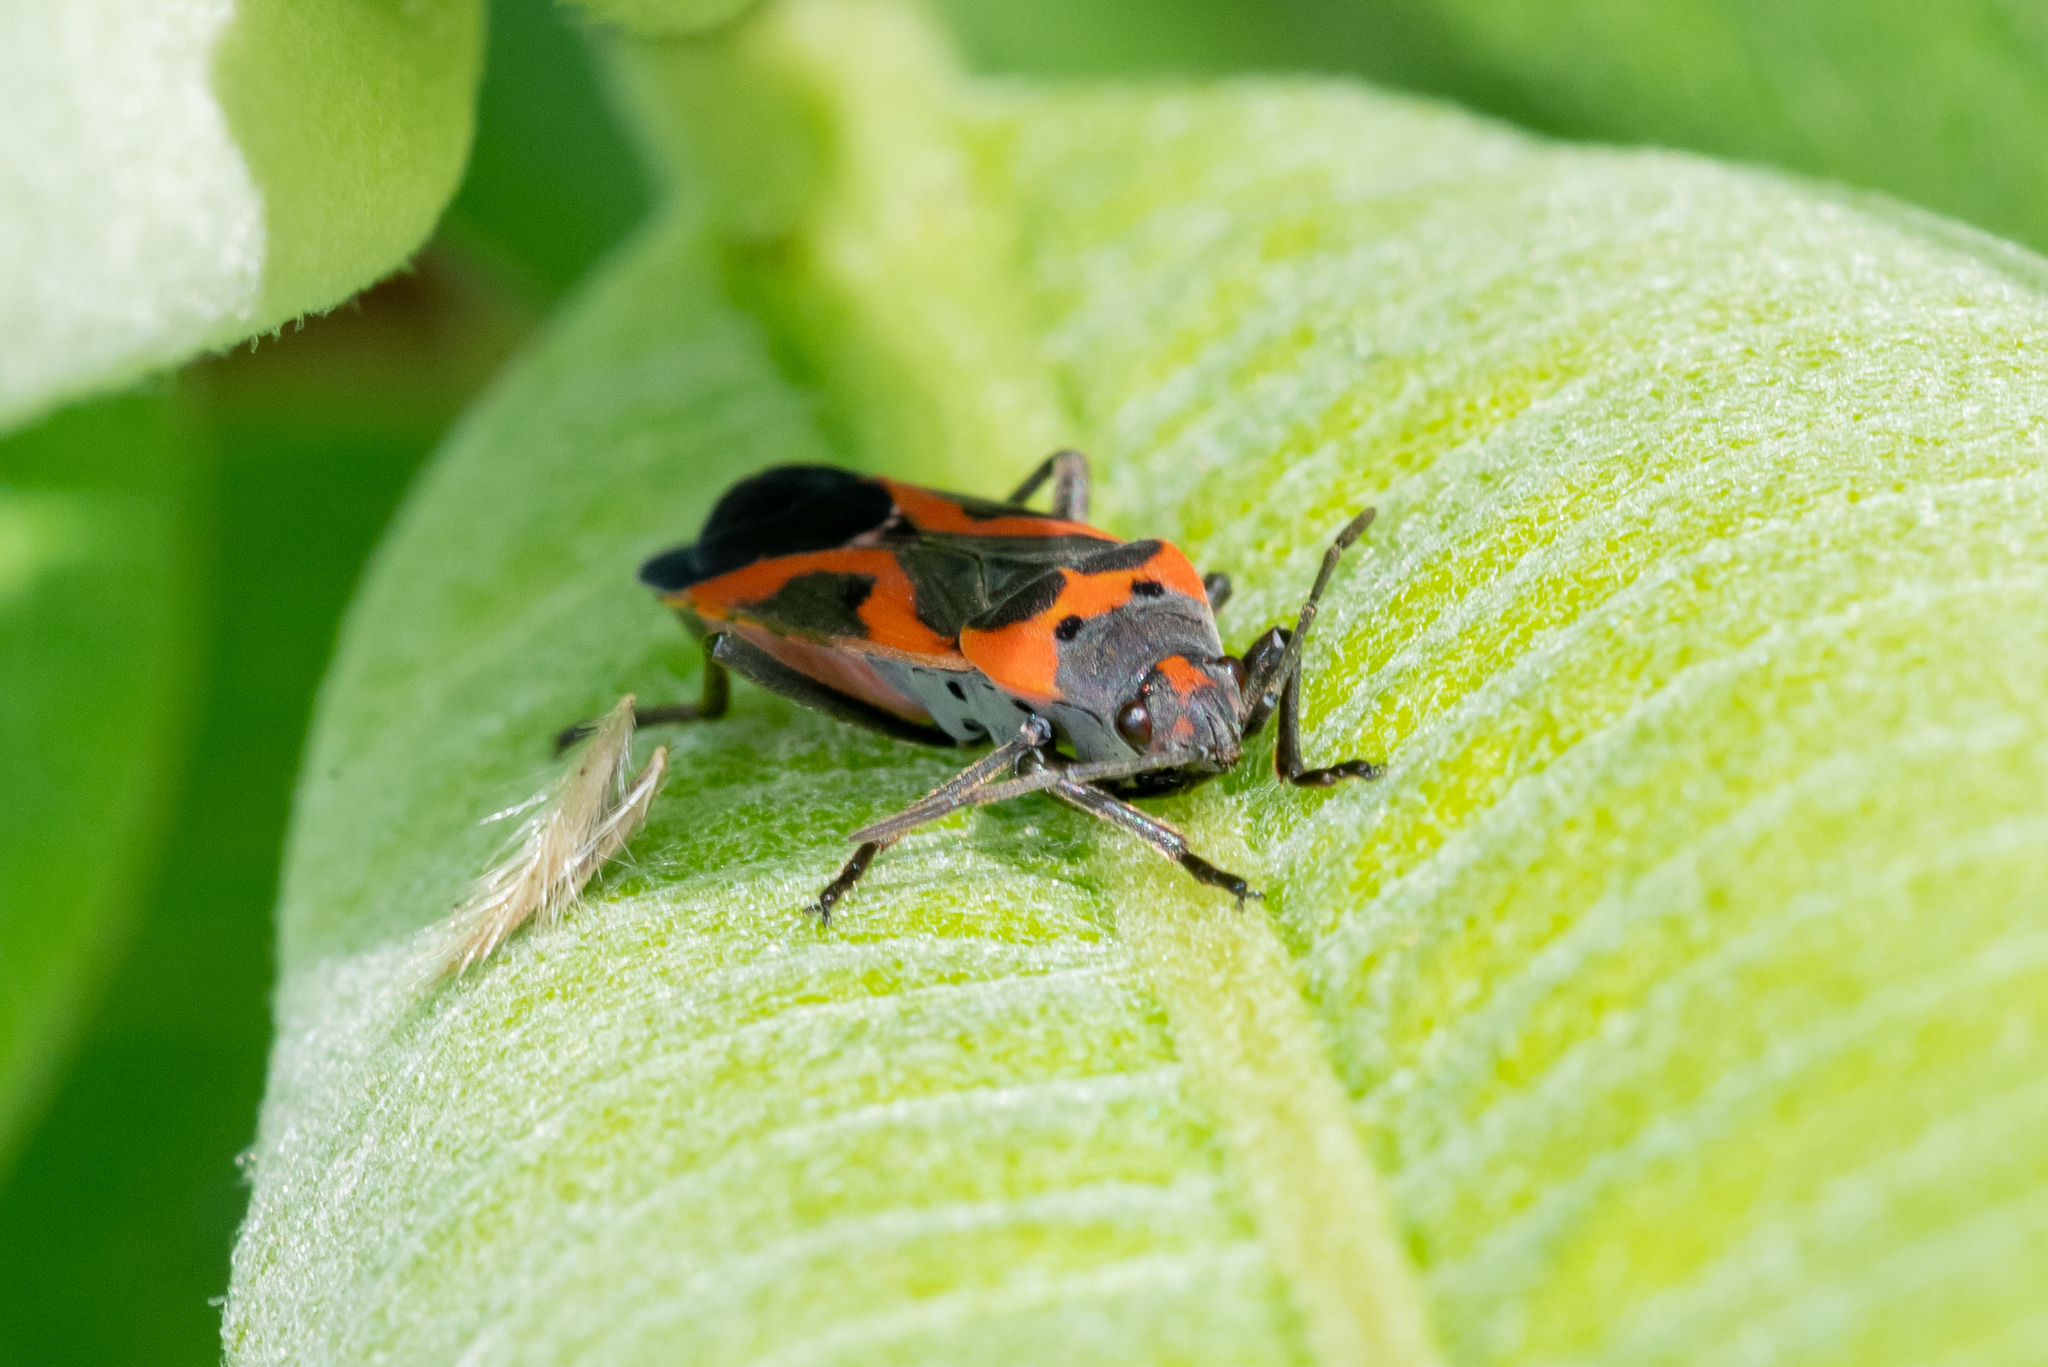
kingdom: Animalia
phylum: Arthropoda
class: Insecta
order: Hemiptera
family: Lygaeidae
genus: Lygaeus
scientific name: Lygaeus kalmii
